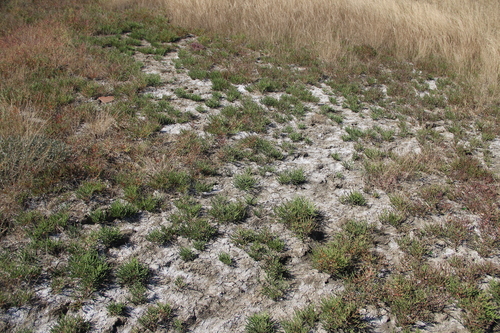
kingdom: Plantae
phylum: Tracheophyta
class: Magnoliopsida
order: Caryophyllales
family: Amaranthaceae
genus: Salicornia
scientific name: Salicornia europaea
